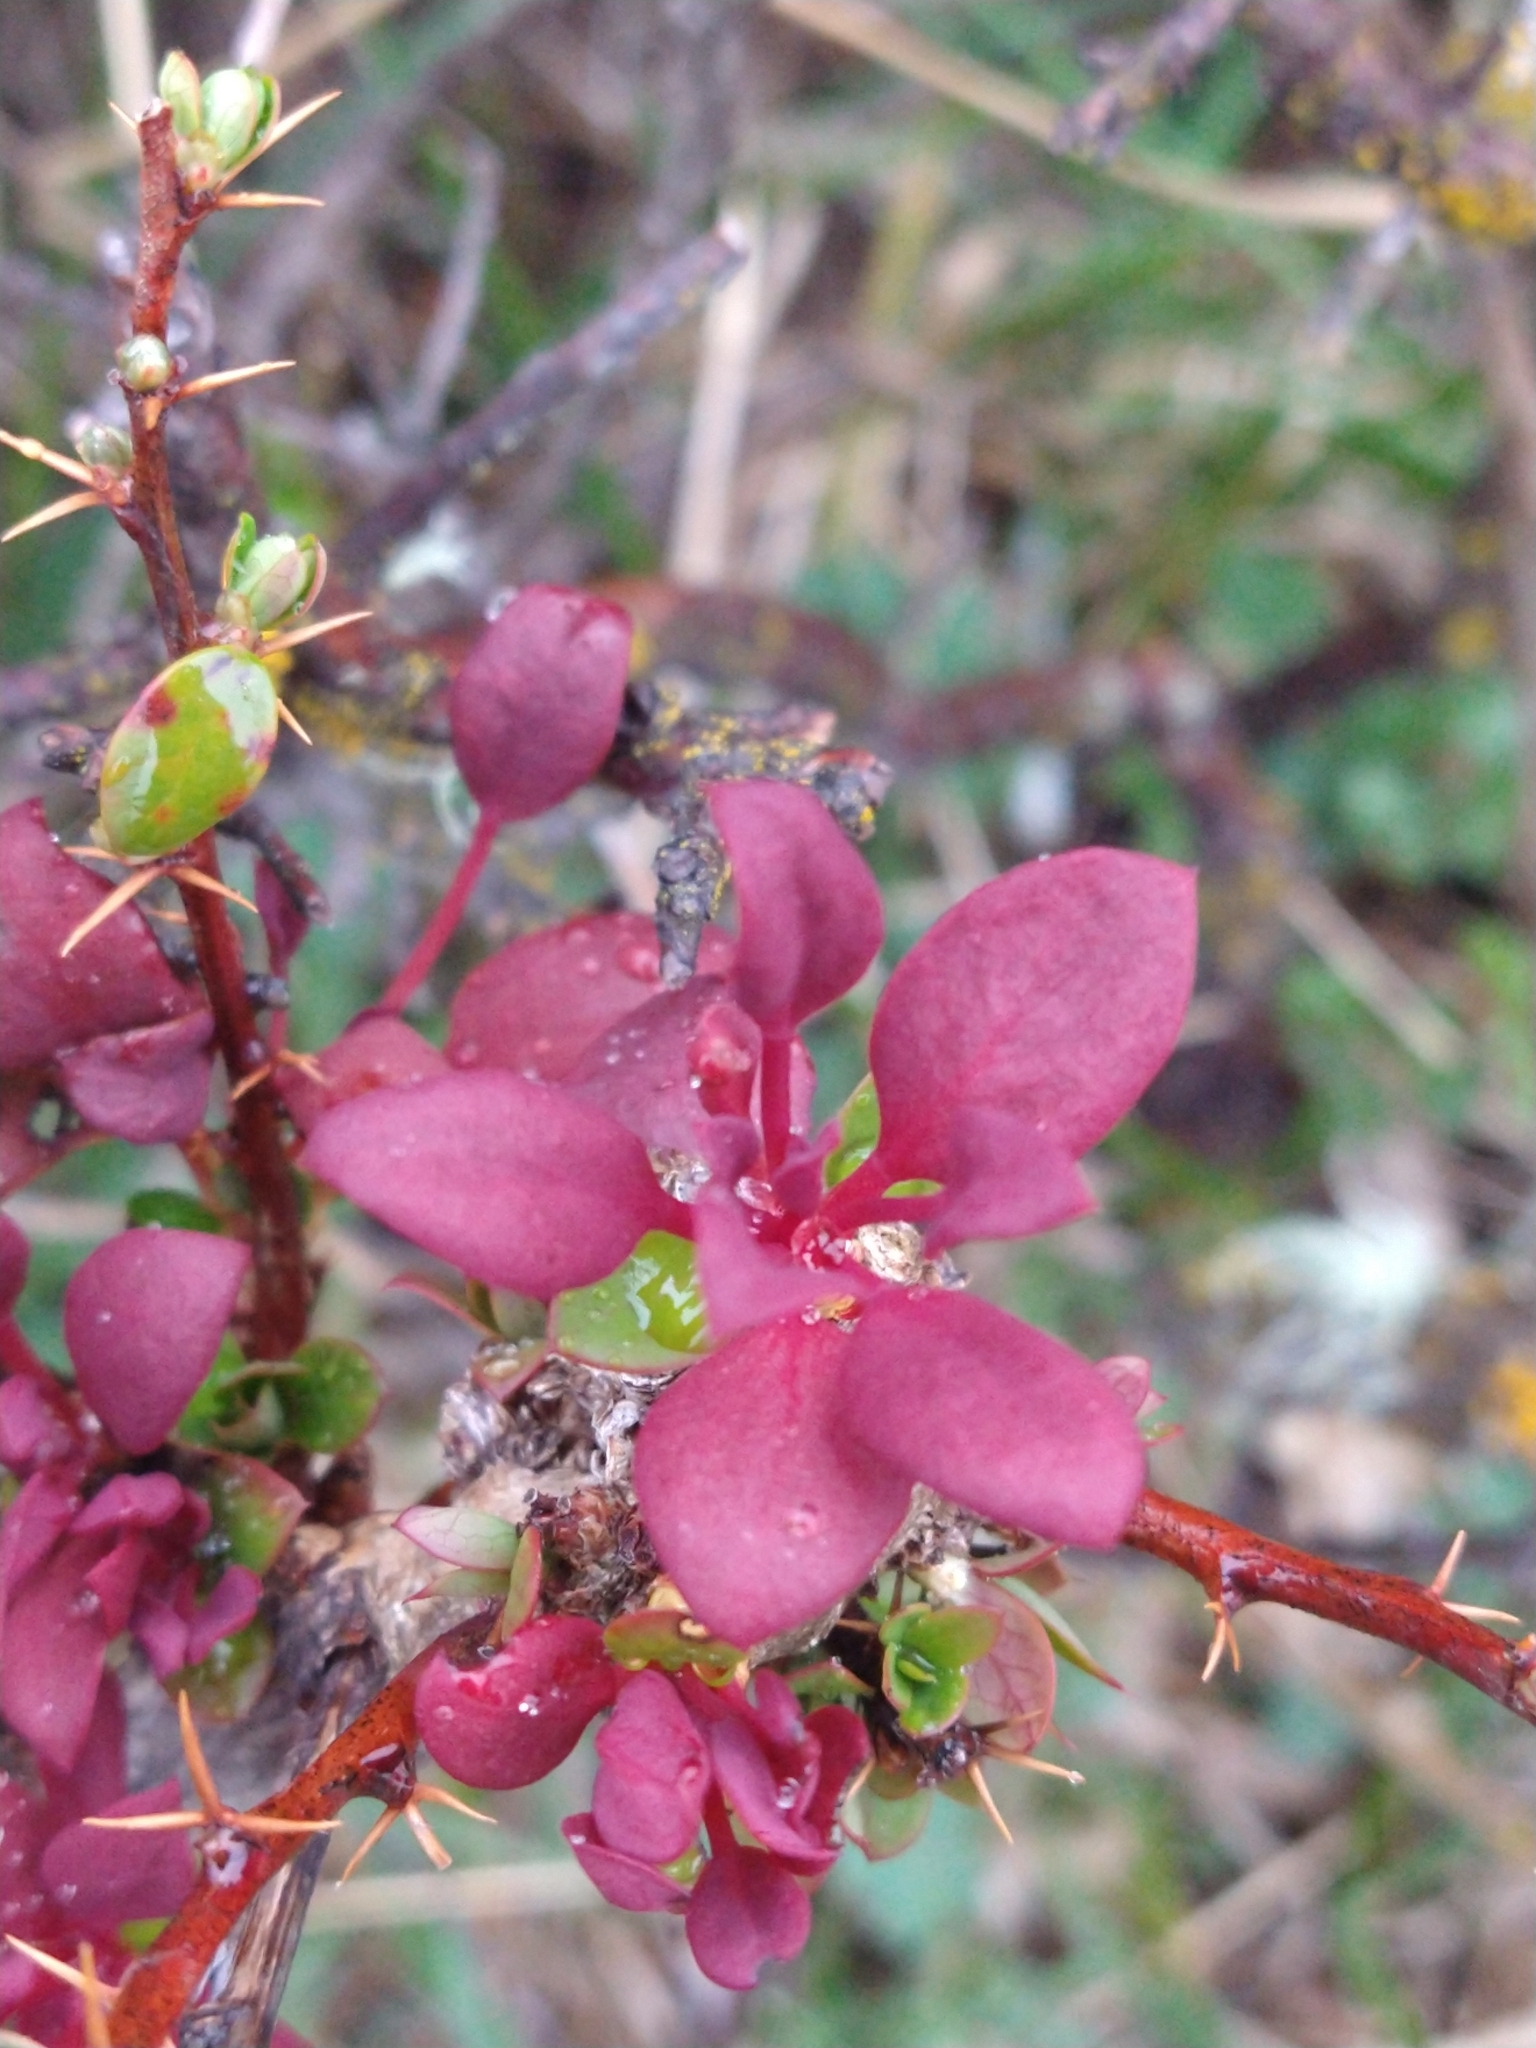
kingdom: Fungi
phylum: Basidiomycota
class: Pucciniomycetes
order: Pucciniales
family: Pucciniaceae
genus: Puccinia
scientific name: Puccinia magellanica
